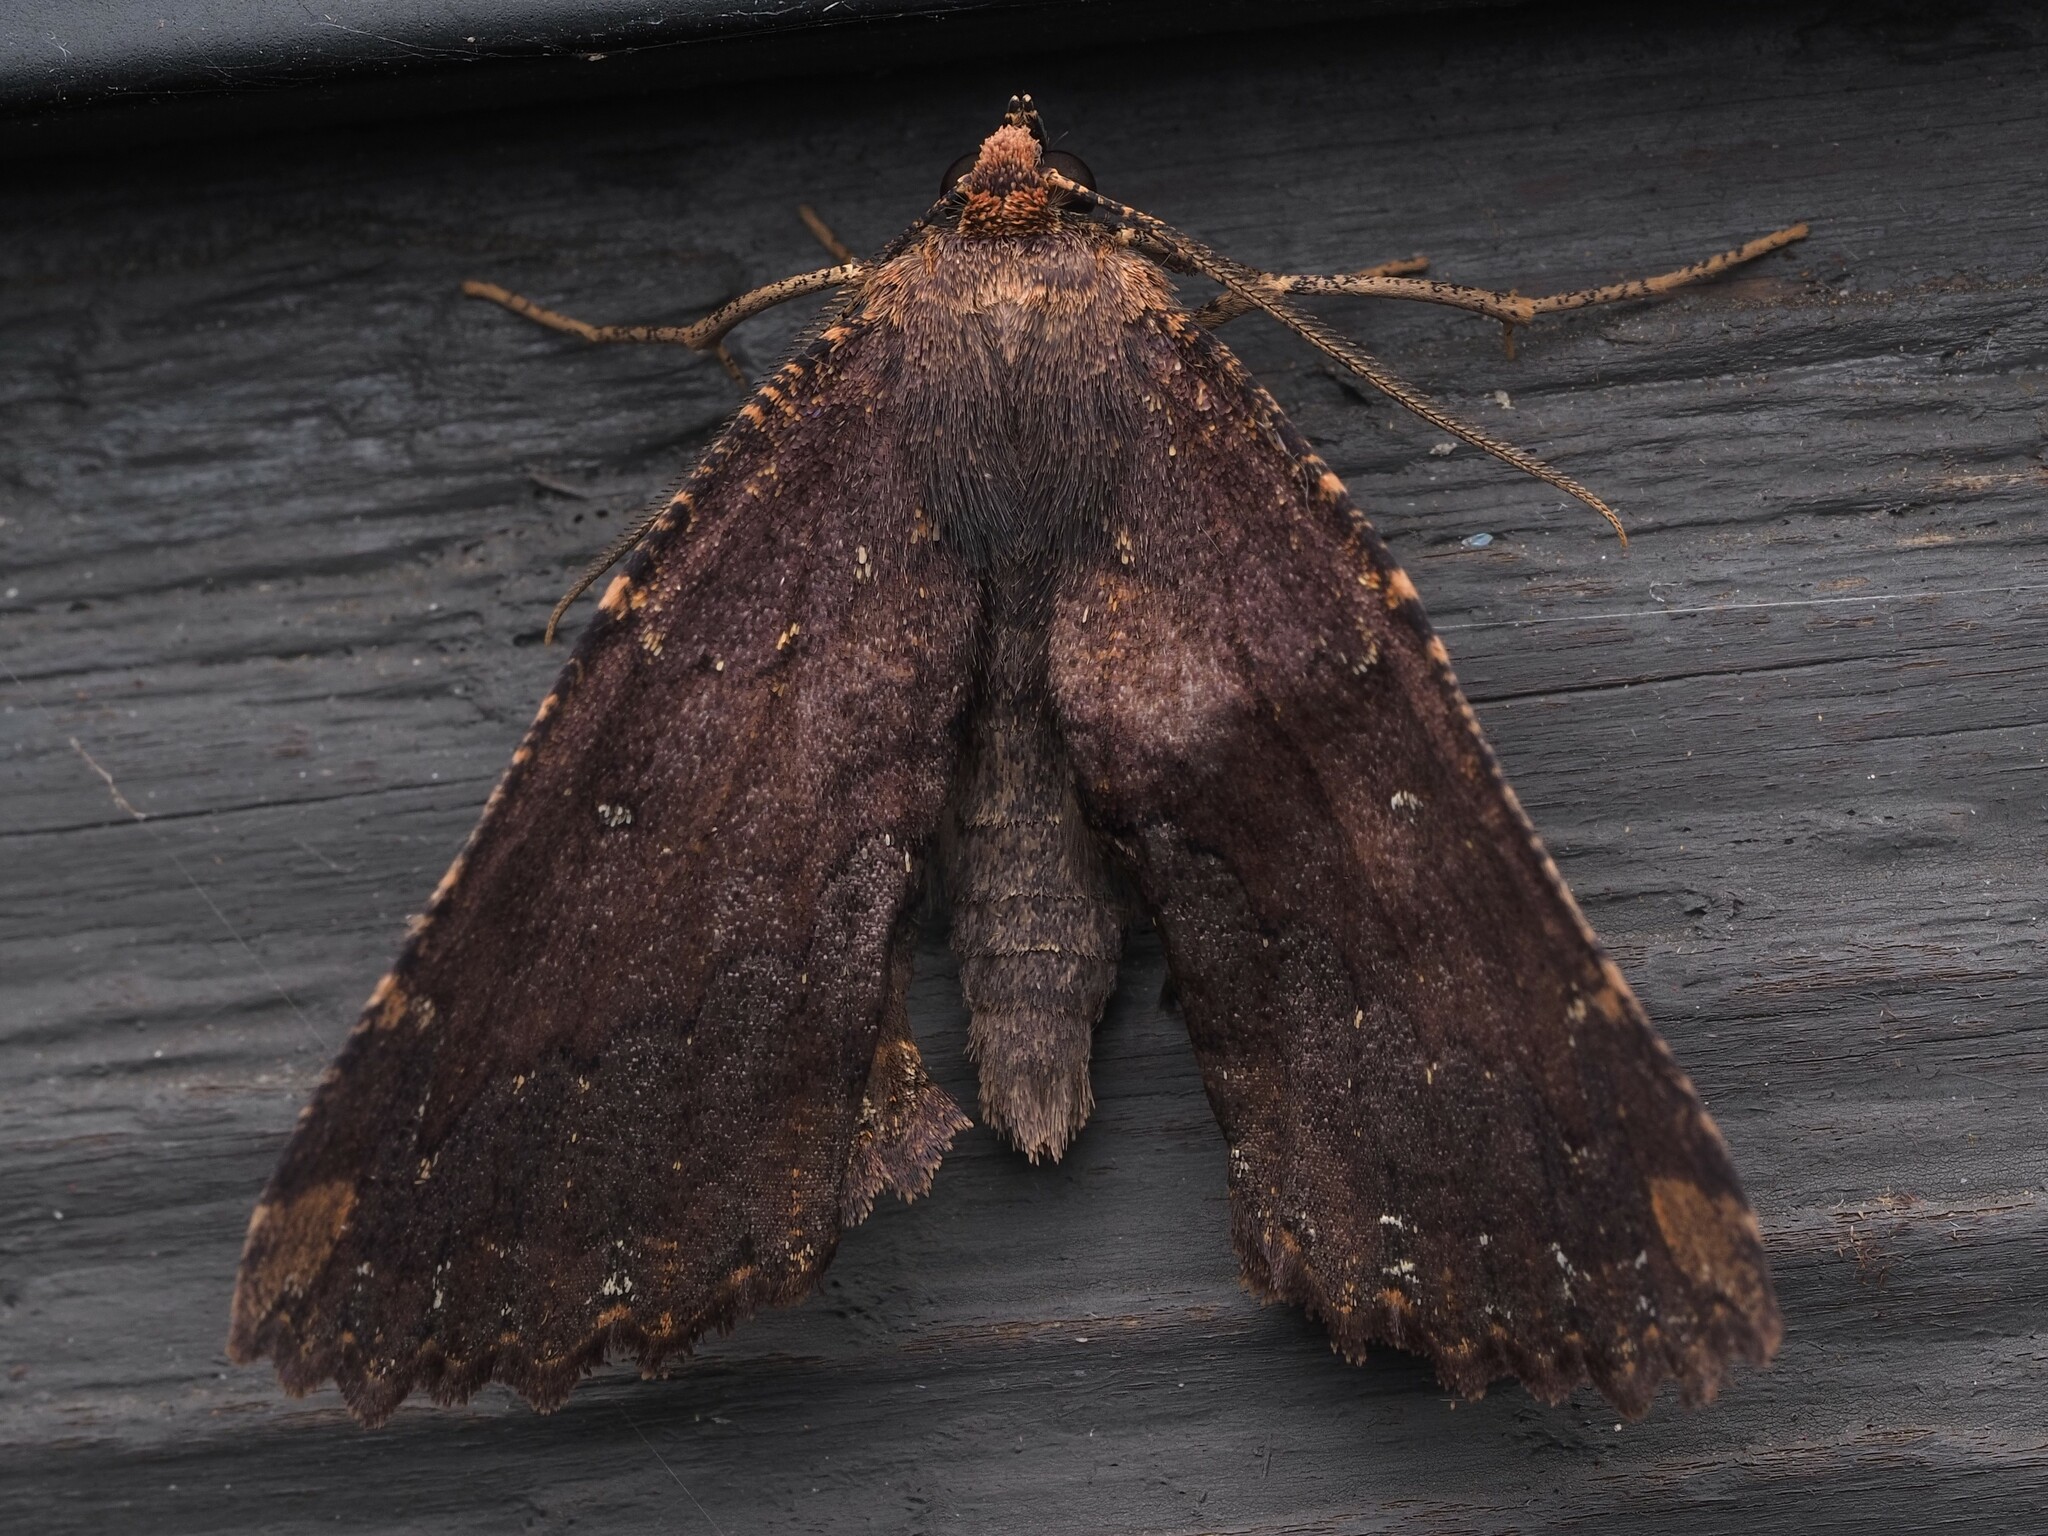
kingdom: Animalia
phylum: Arthropoda
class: Insecta
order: Lepidoptera
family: Geometridae
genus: Gellonia
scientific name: Gellonia dejectaria
